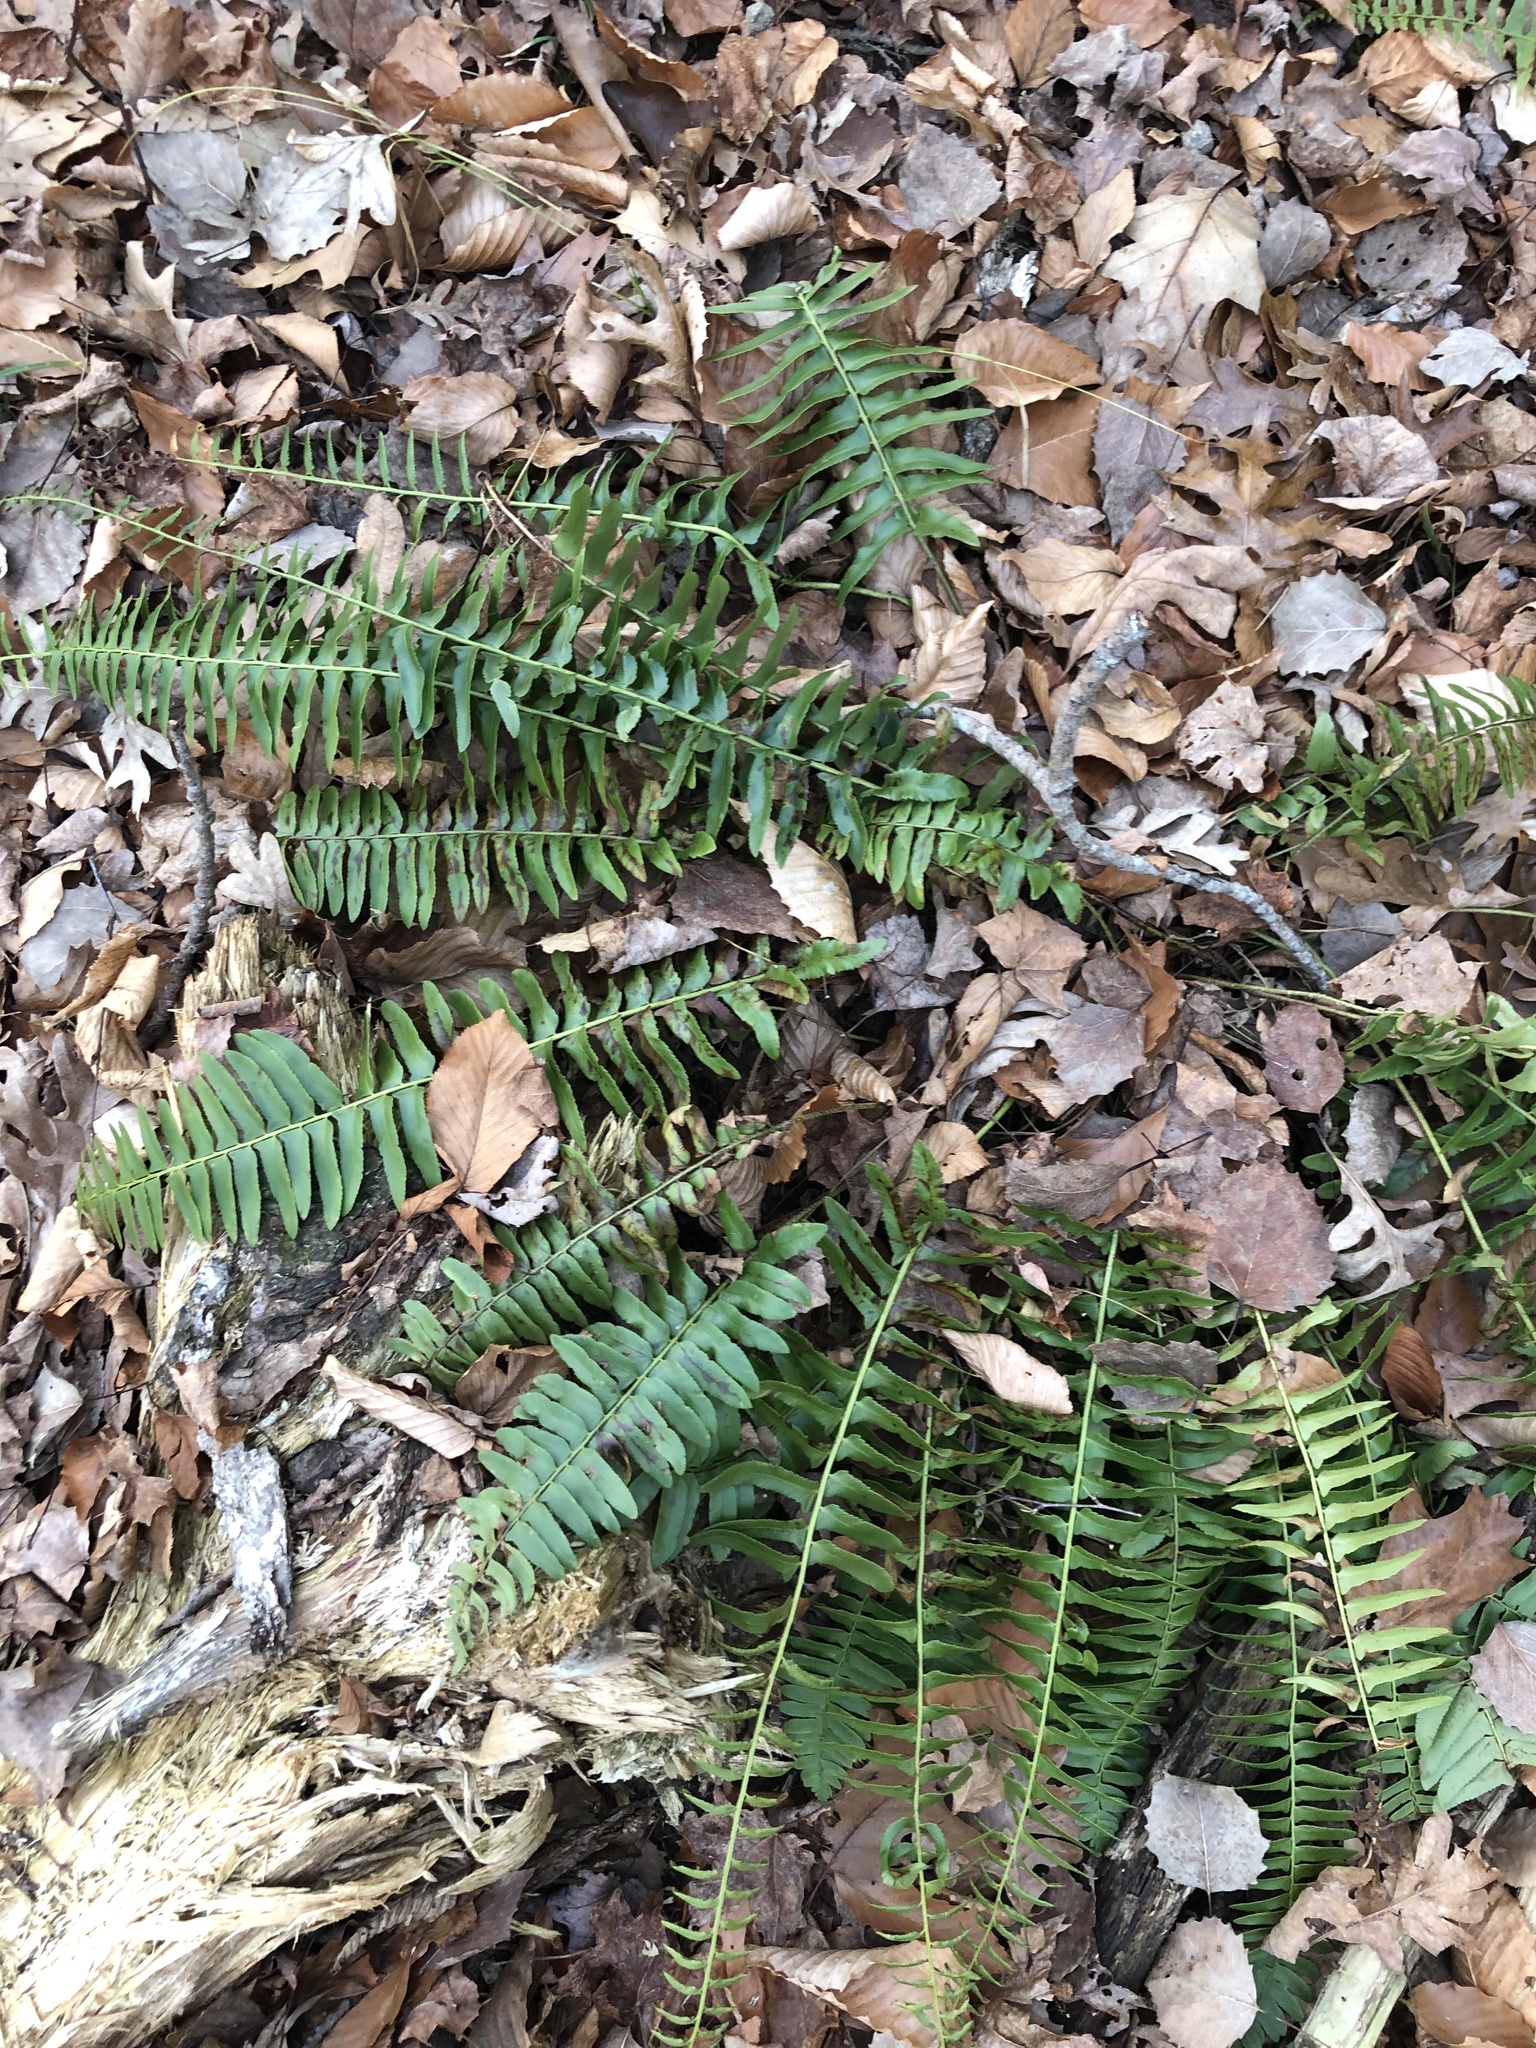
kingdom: Plantae
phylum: Tracheophyta
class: Polypodiopsida
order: Polypodiales
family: Dryopteridaceae
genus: Polystichum
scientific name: Polystichum acrostichoides
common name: Christmas fern
